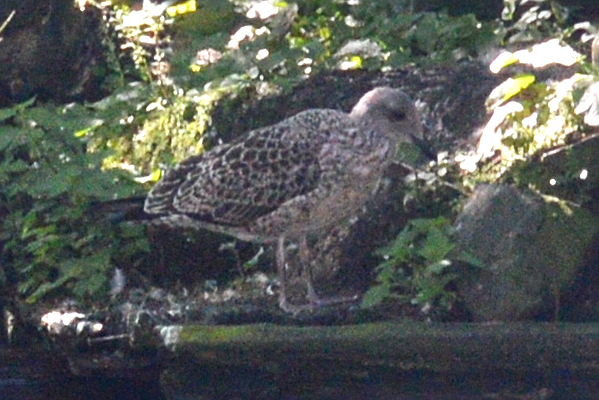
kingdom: Animalia
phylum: Chordata
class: Aves
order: Charadriiformes
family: Laridae
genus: Larus
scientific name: Larus fuscus
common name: Lesser black-backed gull
